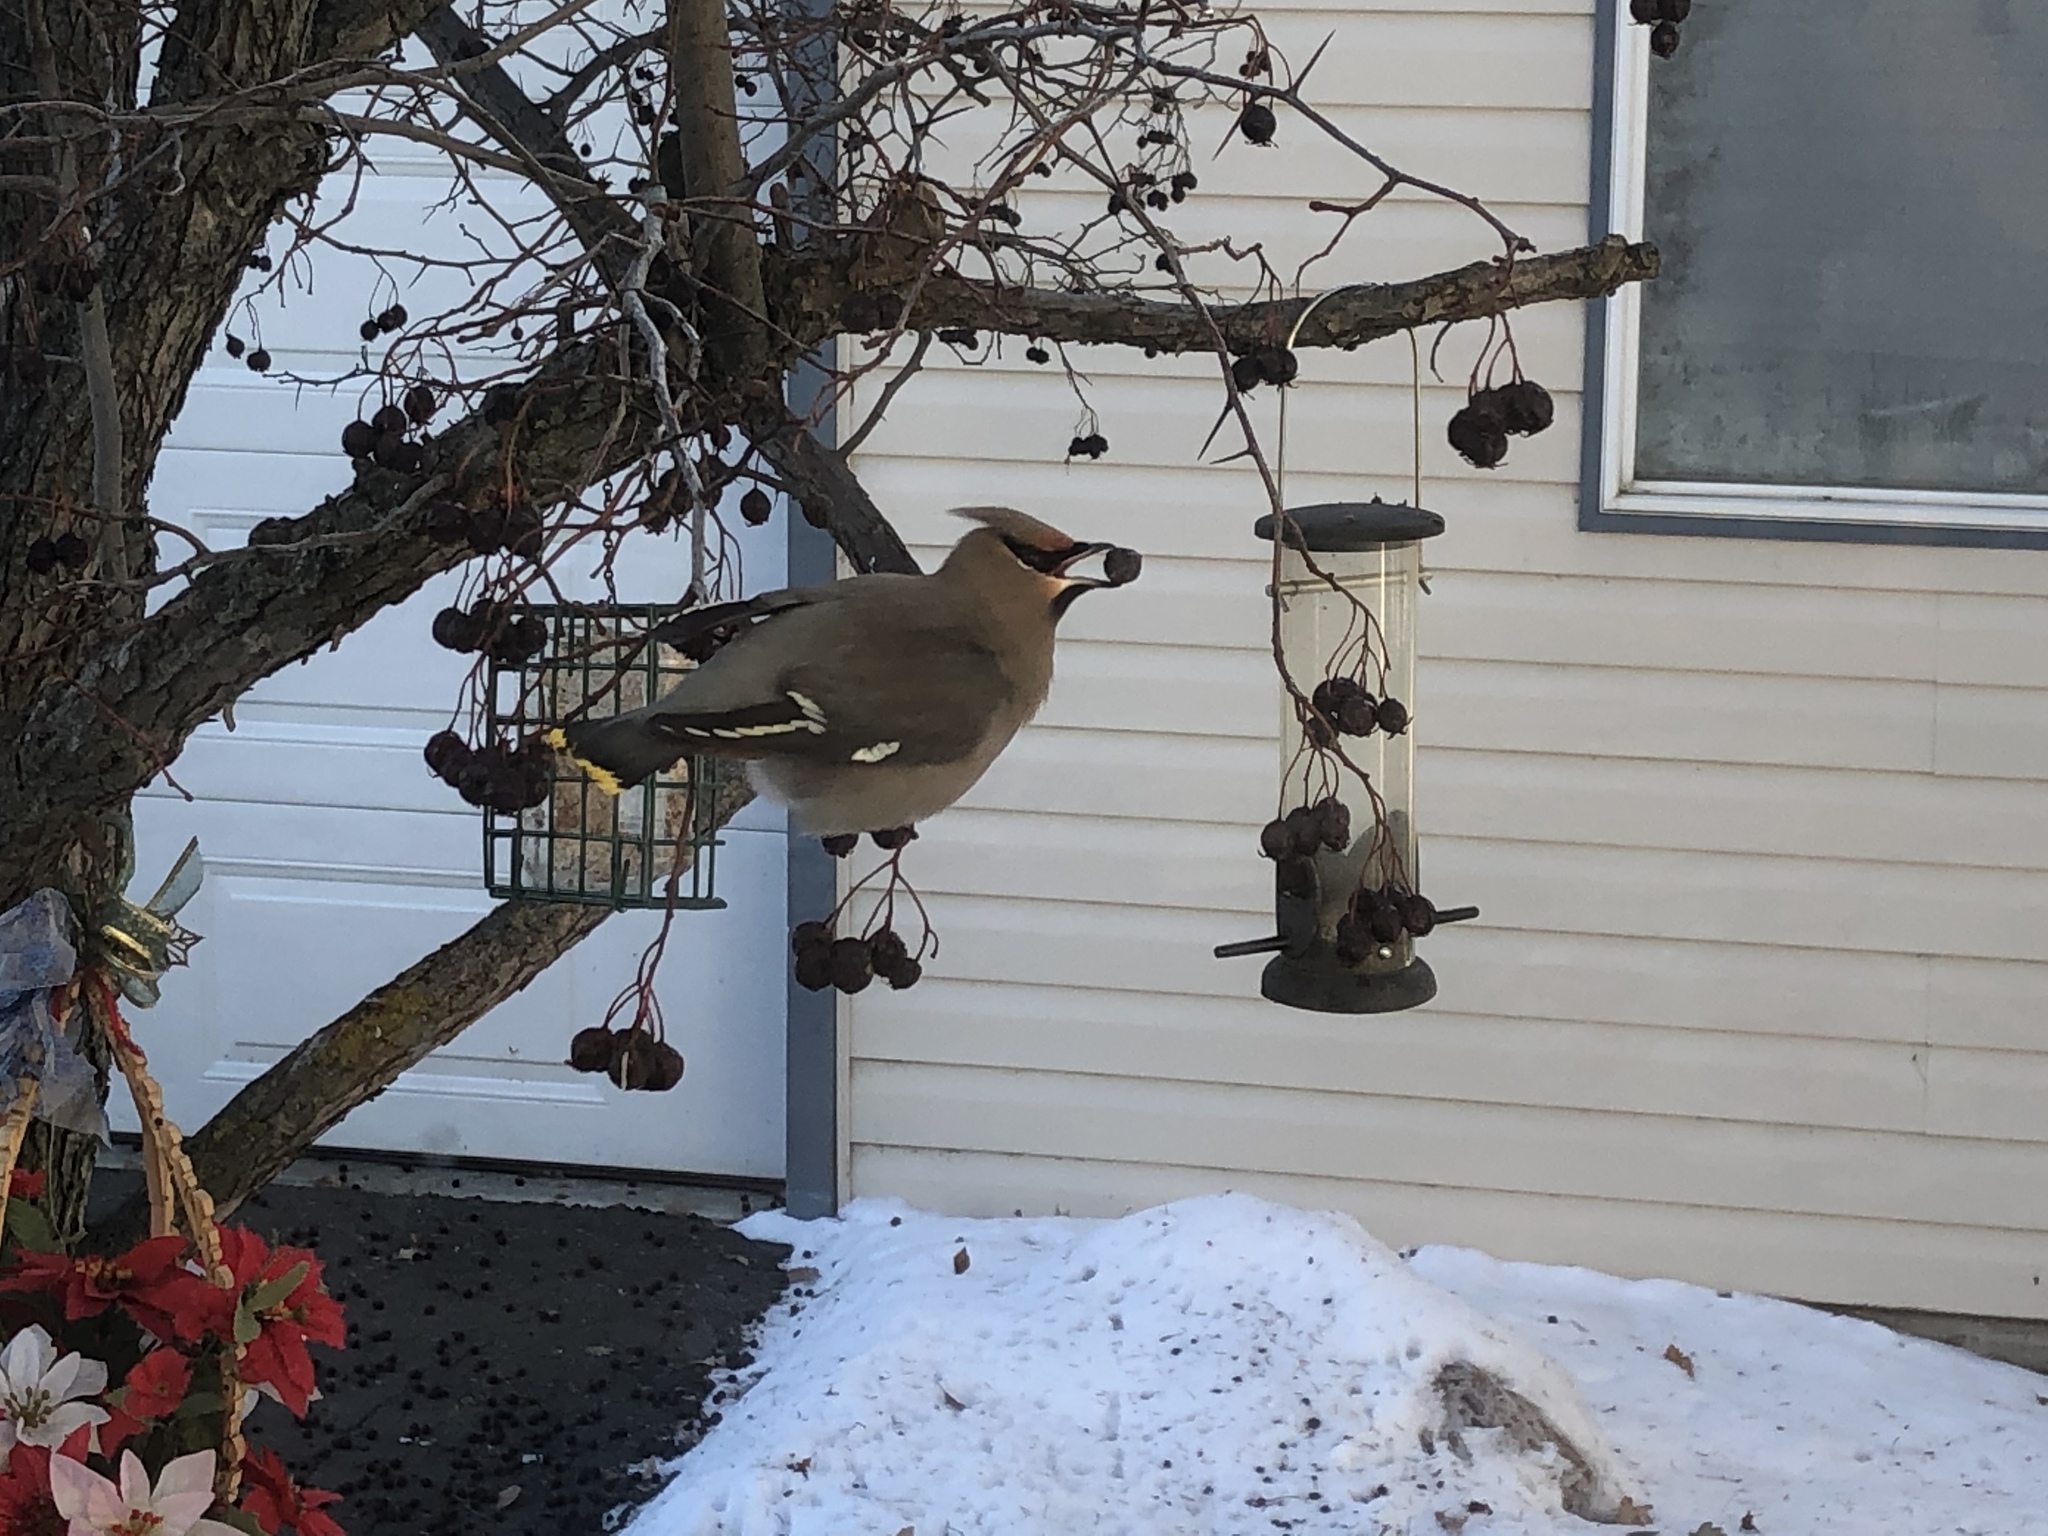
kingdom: Animalia
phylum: Chordata
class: Aves
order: Passeriformes
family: Bombycillidae
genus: Bombycilla
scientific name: Bombycilla garrulus
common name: Bohemian waxwing
